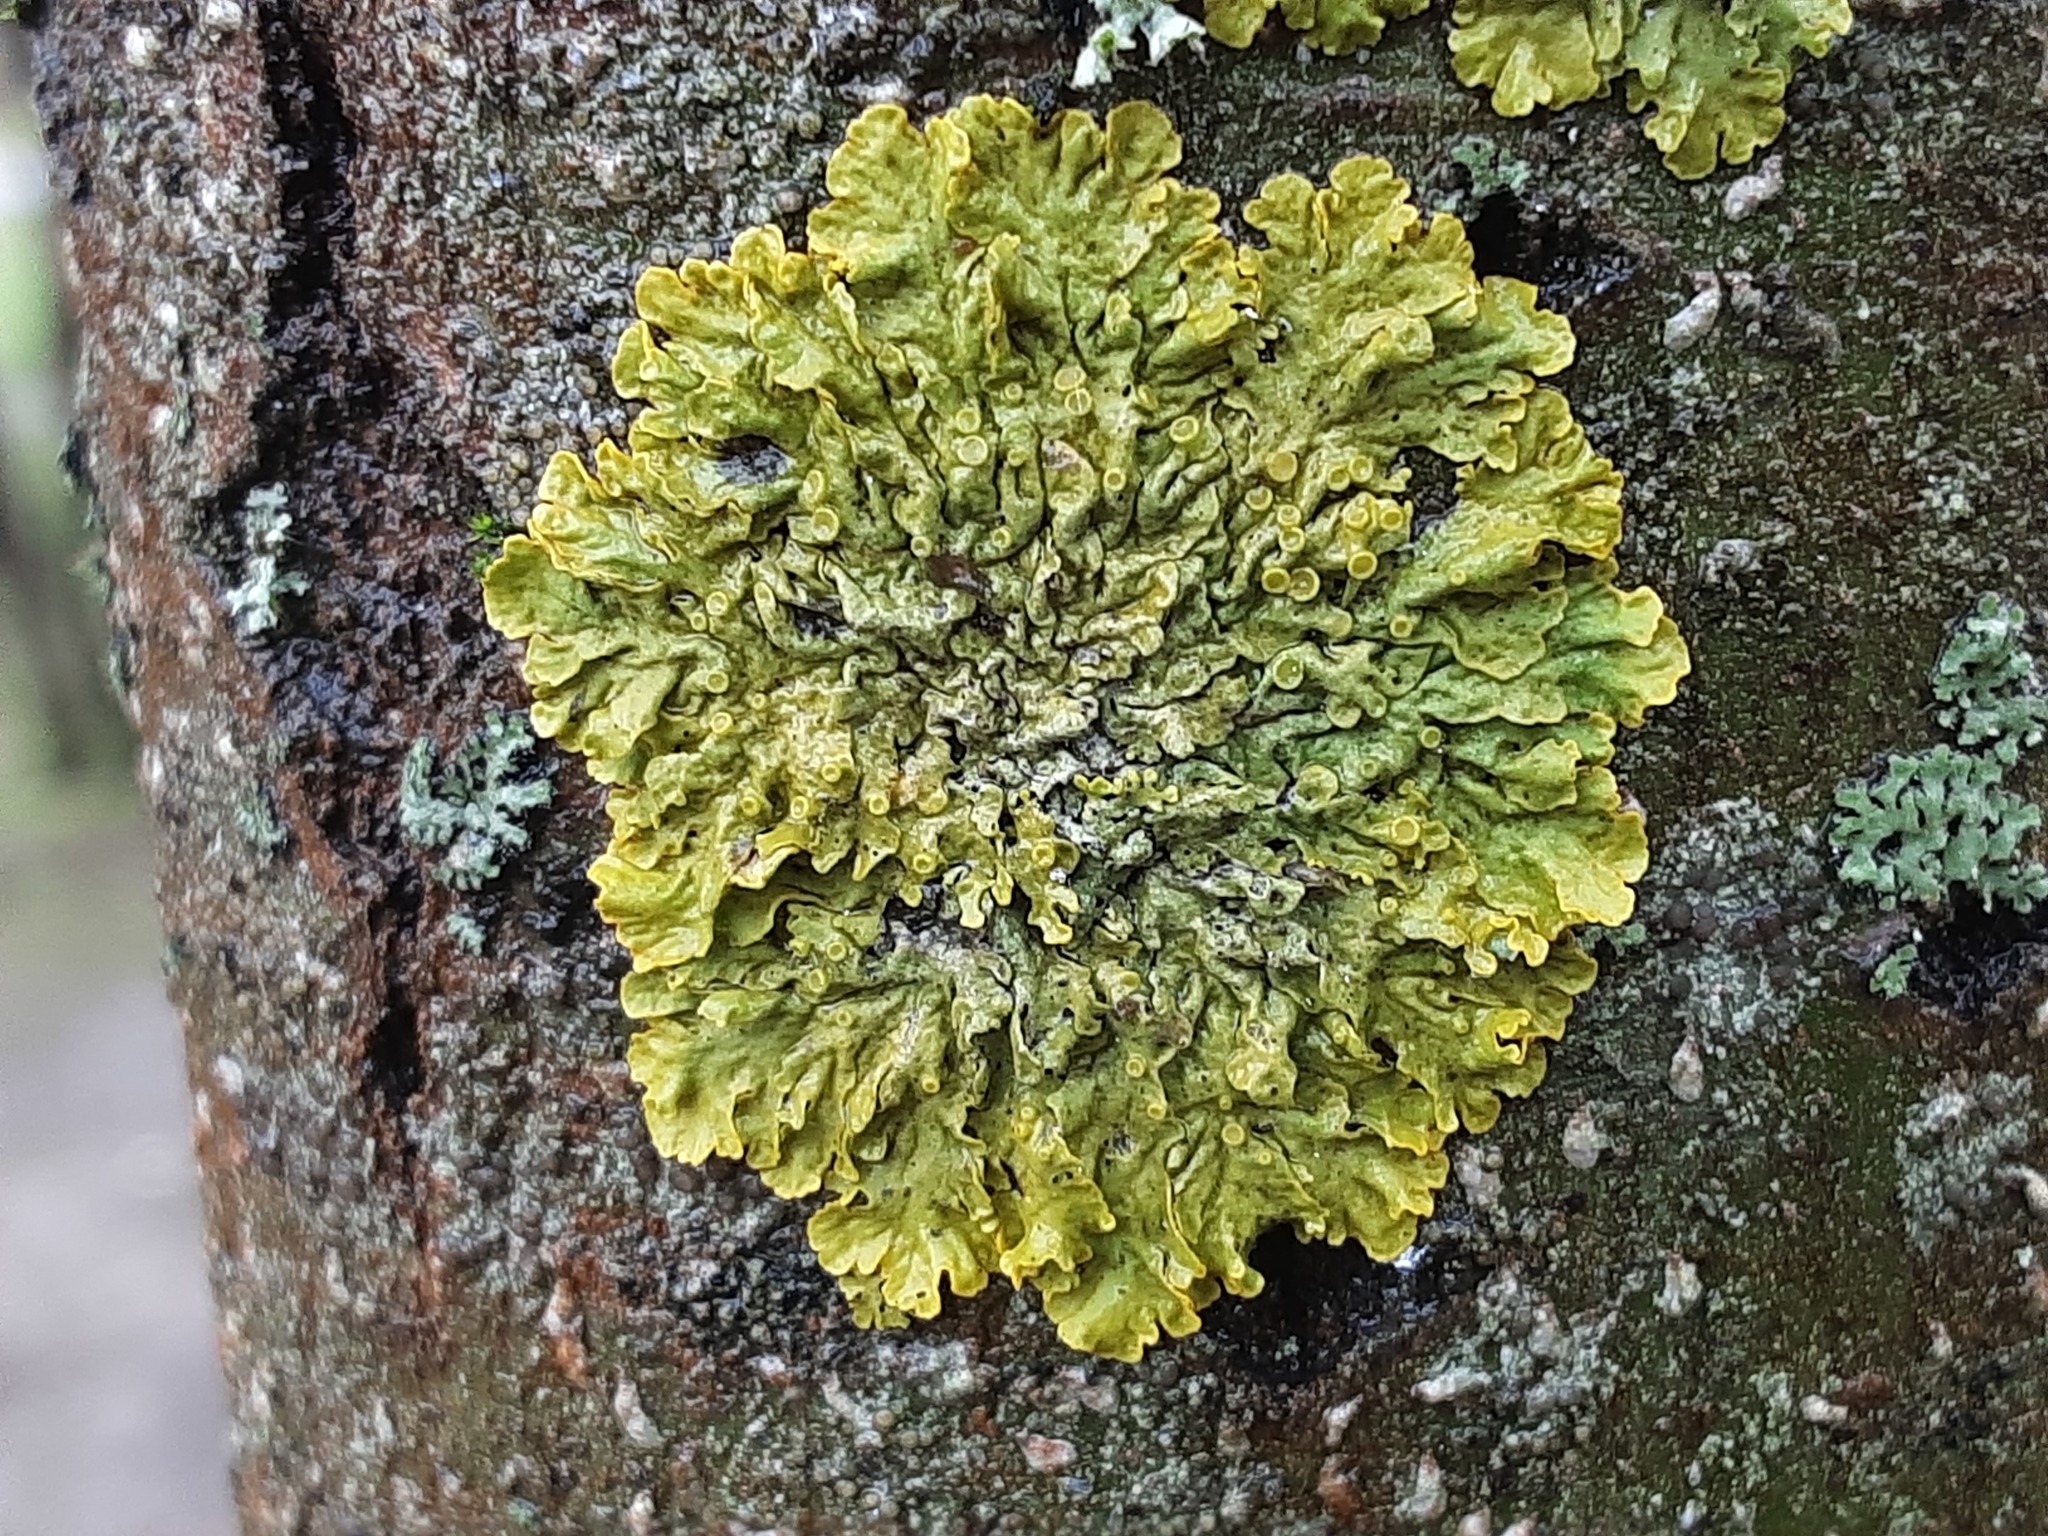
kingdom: Fungi
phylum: Ascomycota
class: Lecanoromycetes
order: Teloschistales
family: Teloschistaceae
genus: Xanthoria
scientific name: Xanthoria parietina
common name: Common orange lichen
